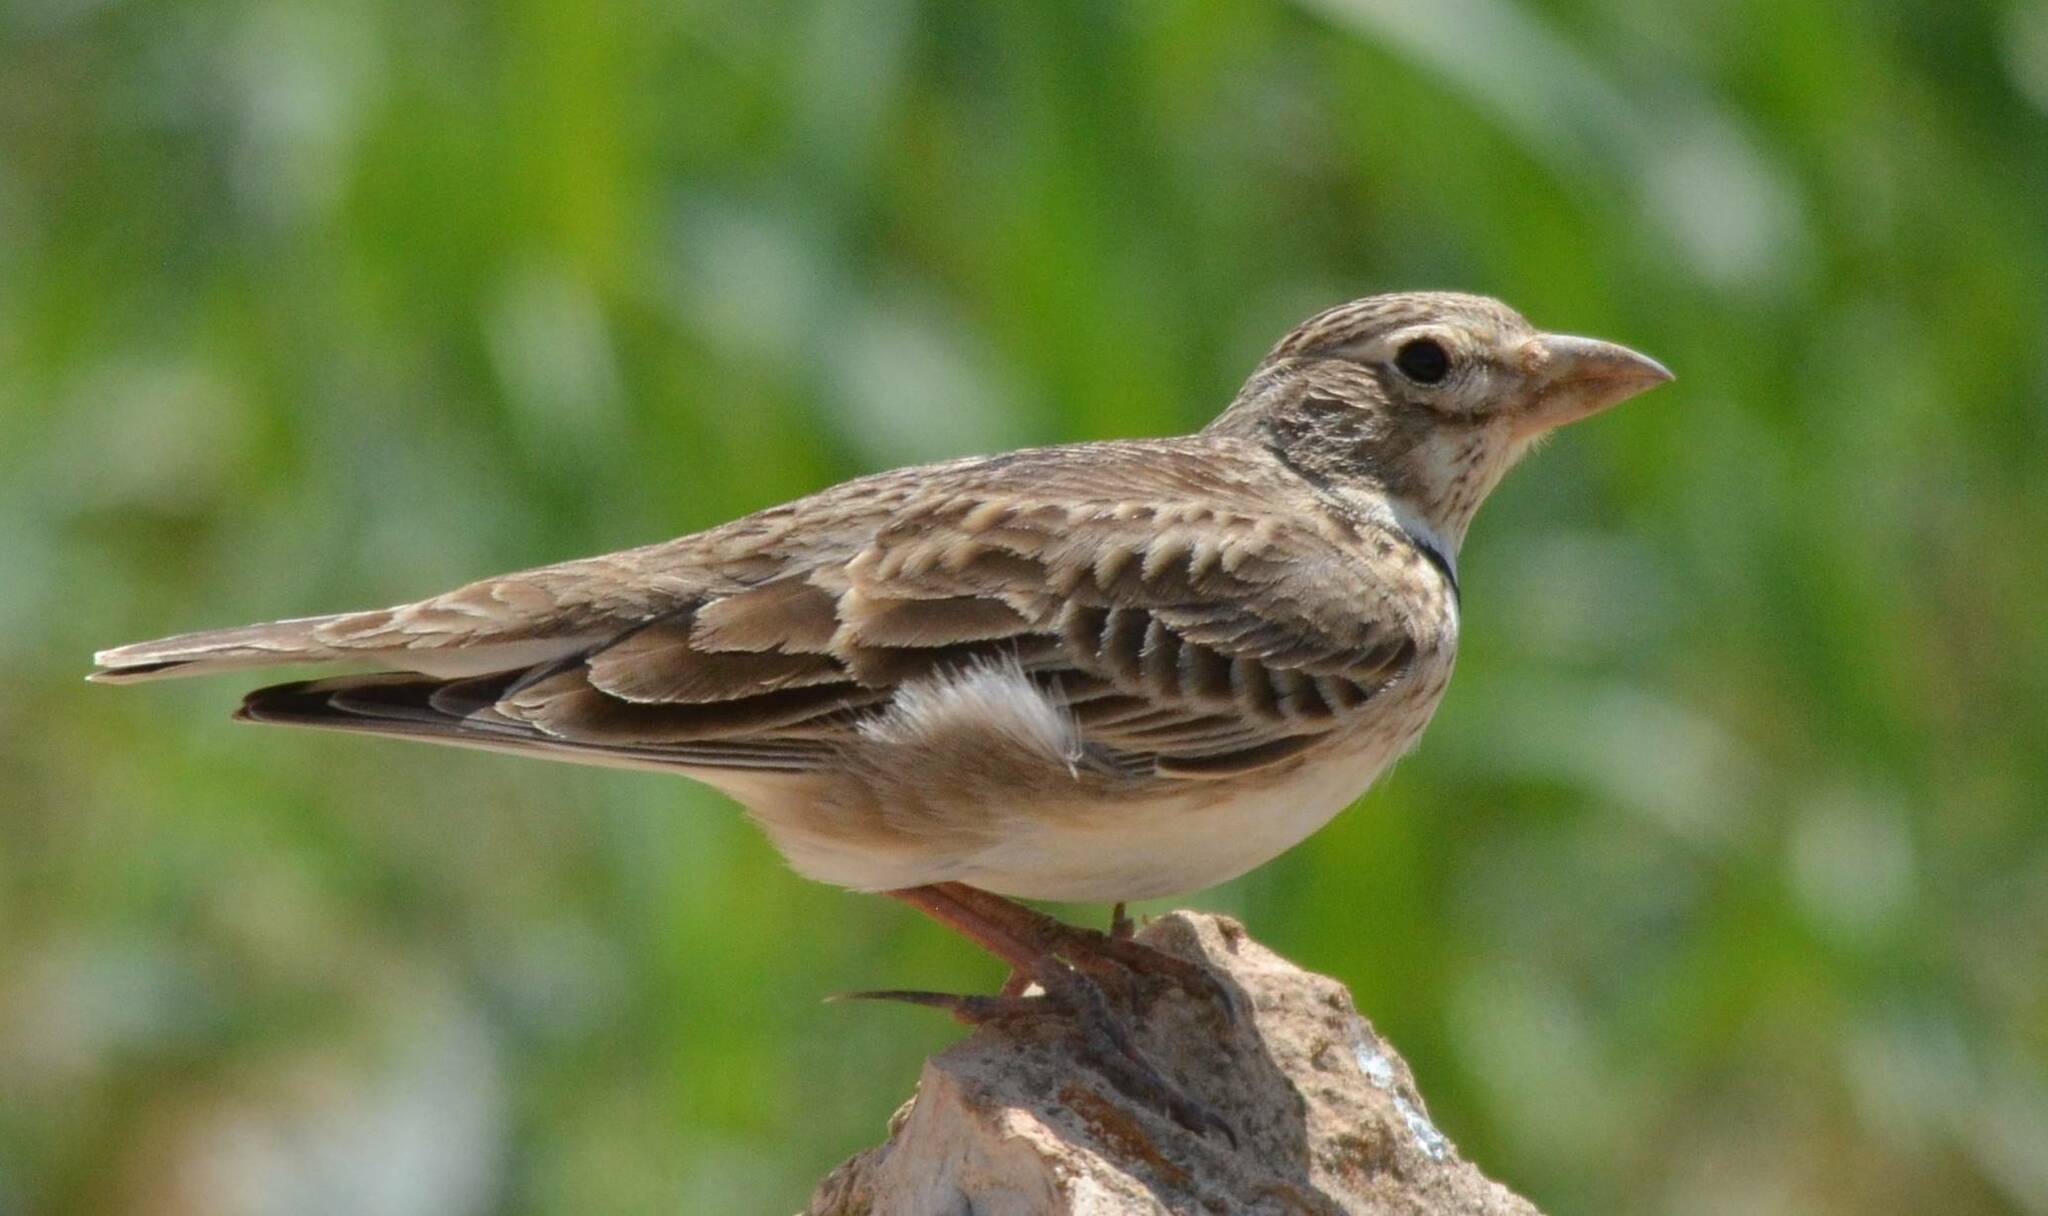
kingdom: Animalia
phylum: Chordata
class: Aves
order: Passeriformes
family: Alaudidae
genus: Melanocorypha
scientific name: Melanocorypha calandra
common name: Calandra lark
